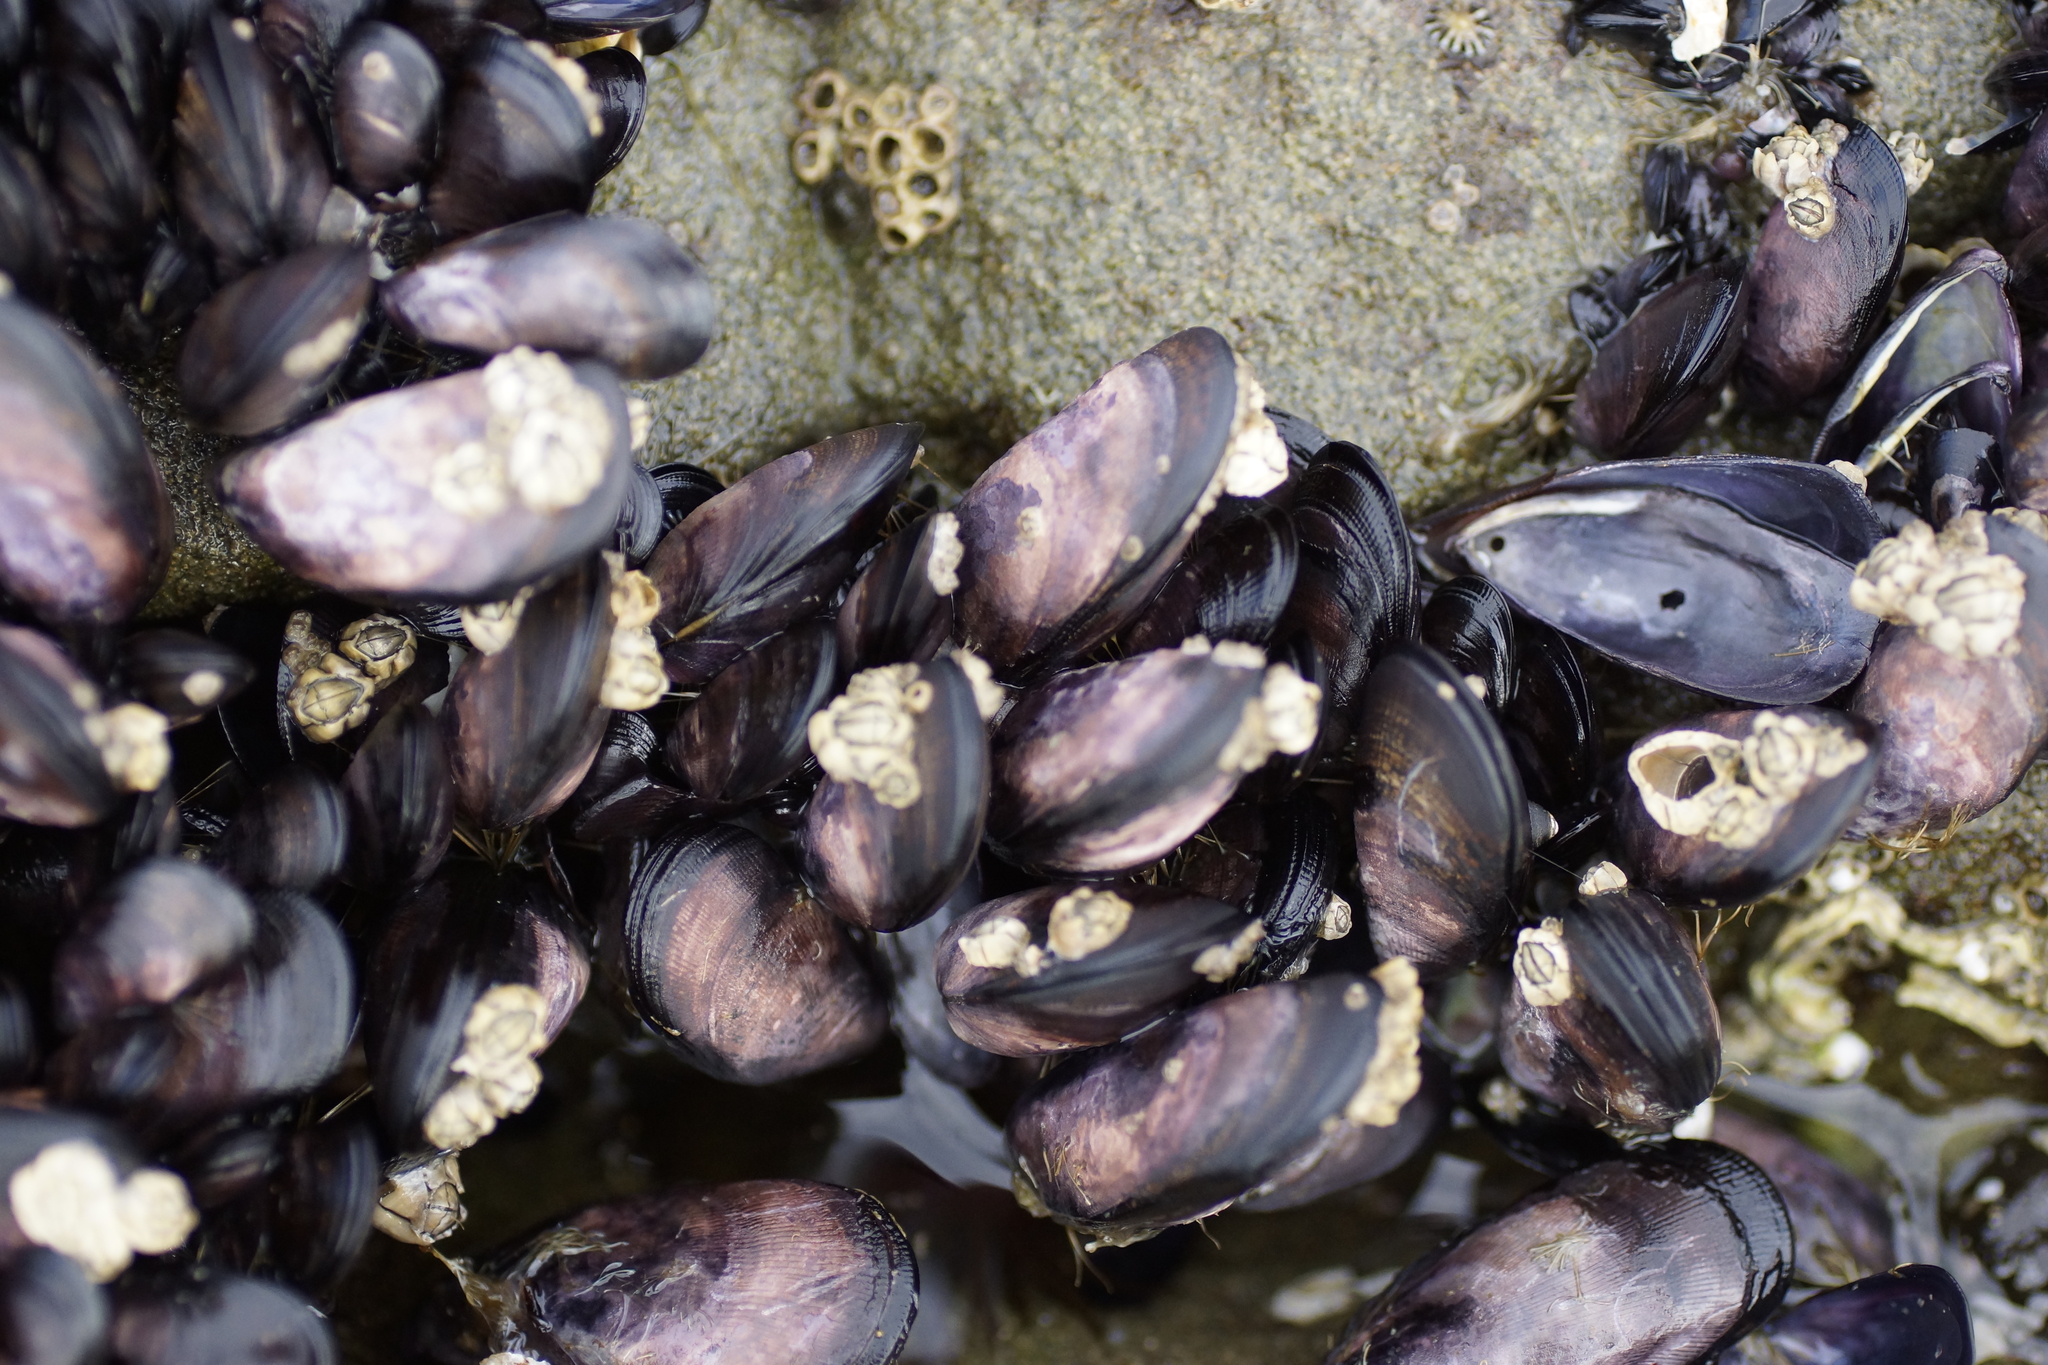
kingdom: Animalia
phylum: Mollusca
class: Bivalvia
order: Mytilida
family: Mytilidae
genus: Brachidontes
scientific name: Brachidontes rostratus
